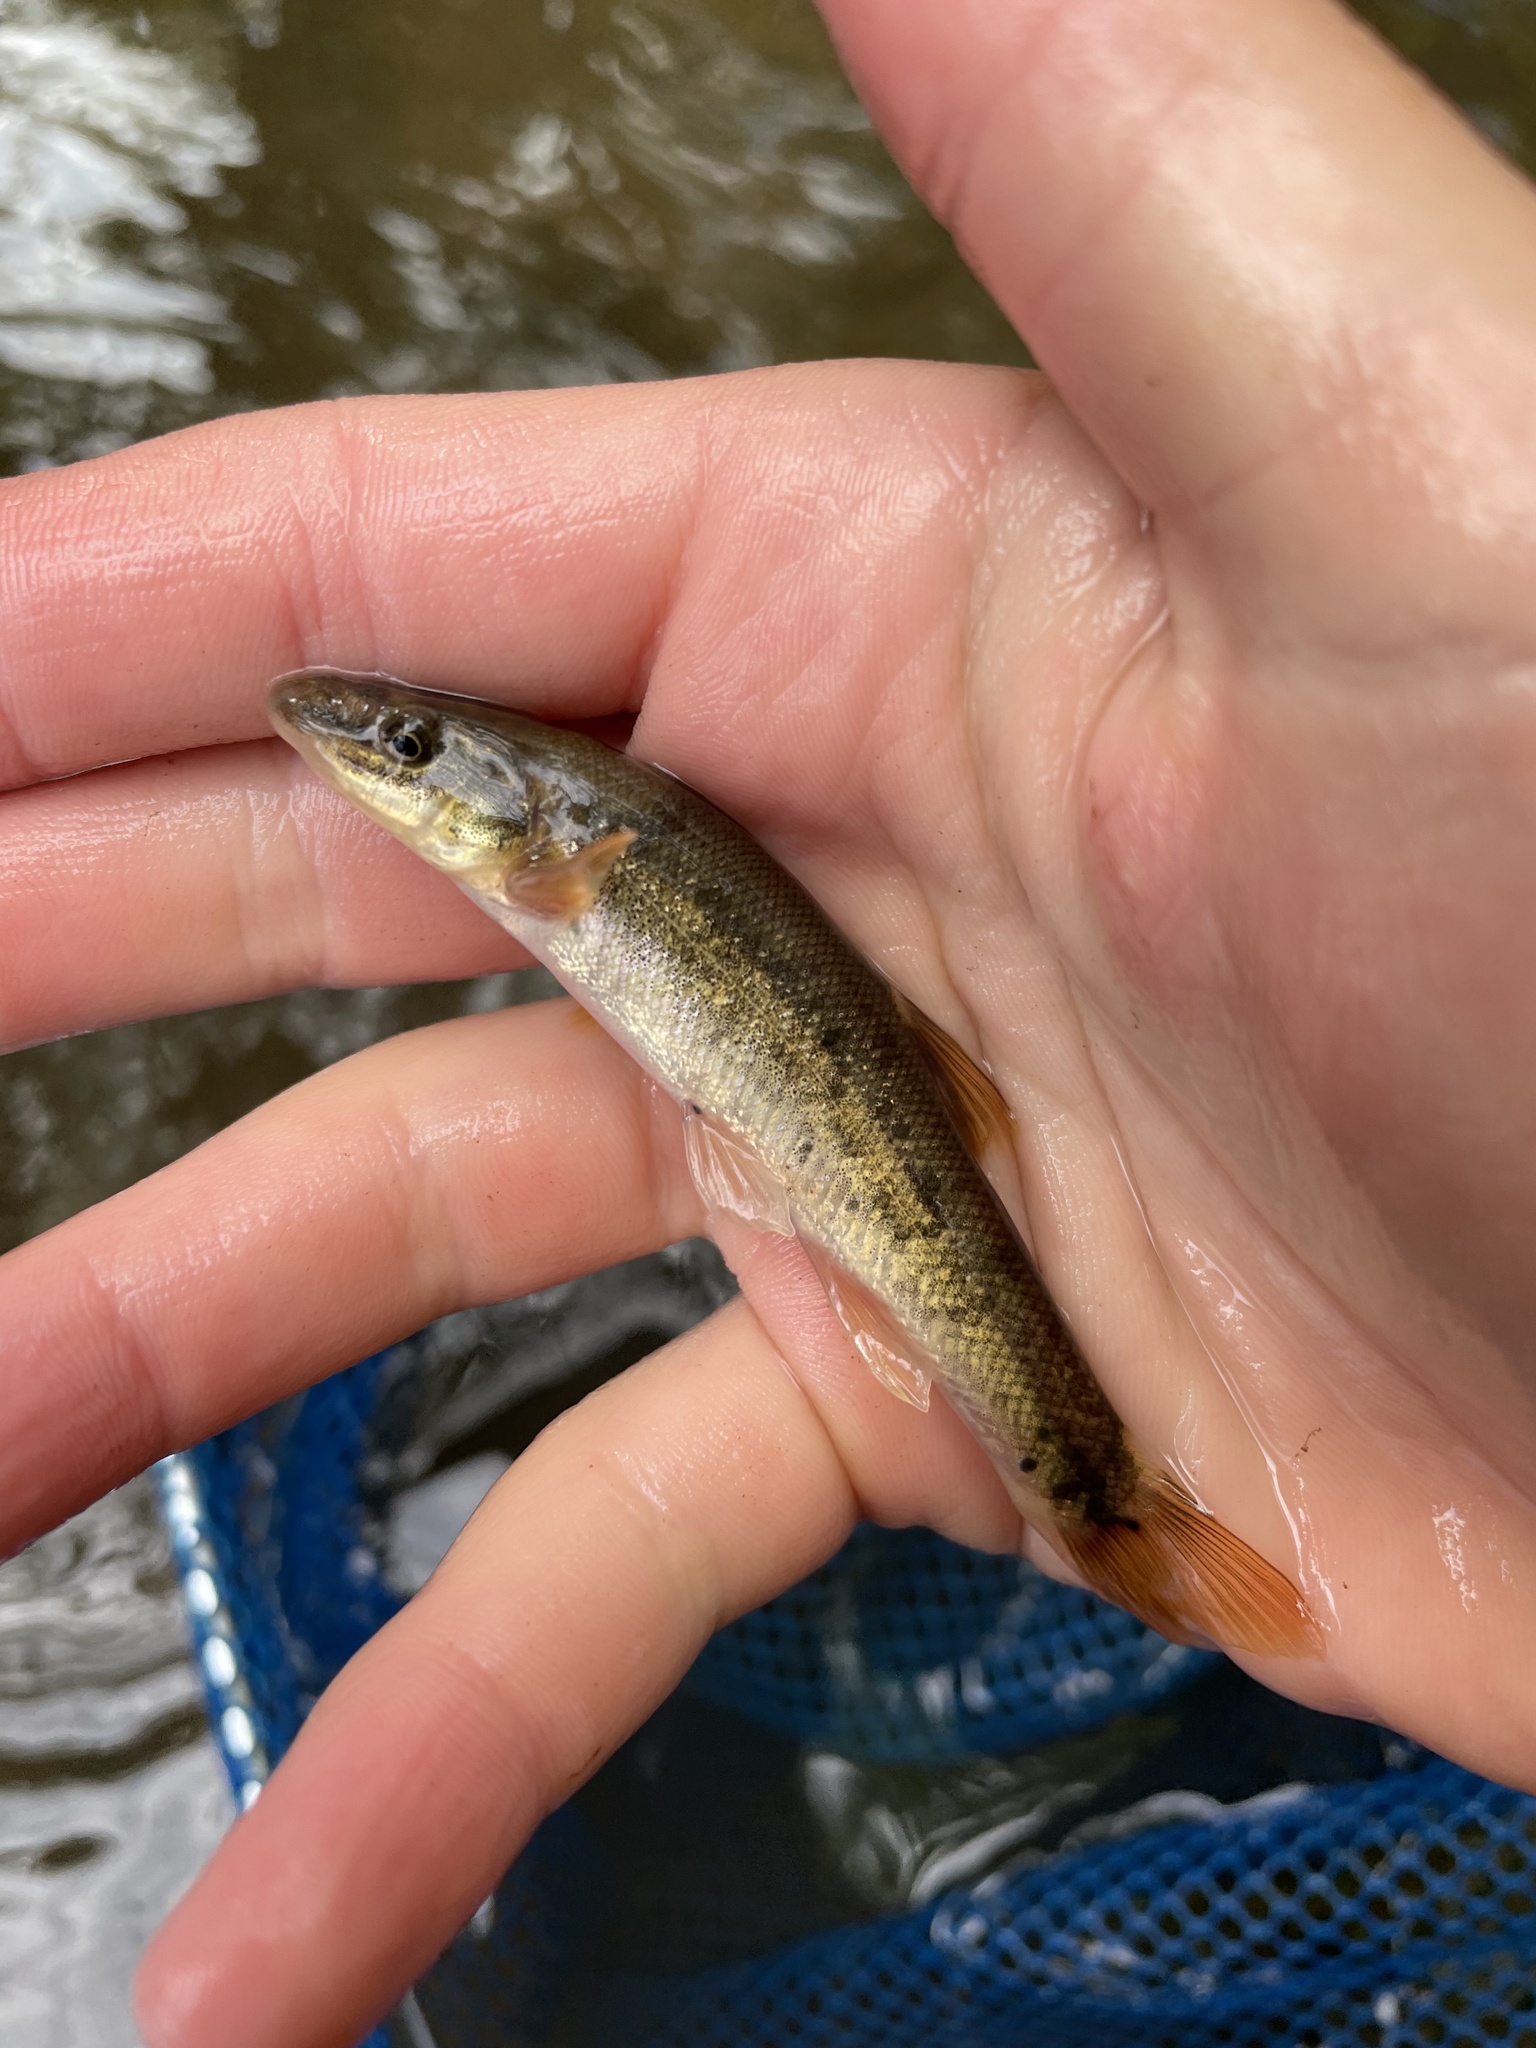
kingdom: Animalia
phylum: Platyhelminthes
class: Trematoda
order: Diplostomida
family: Diplostomidae
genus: Neascus
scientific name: Neascus
